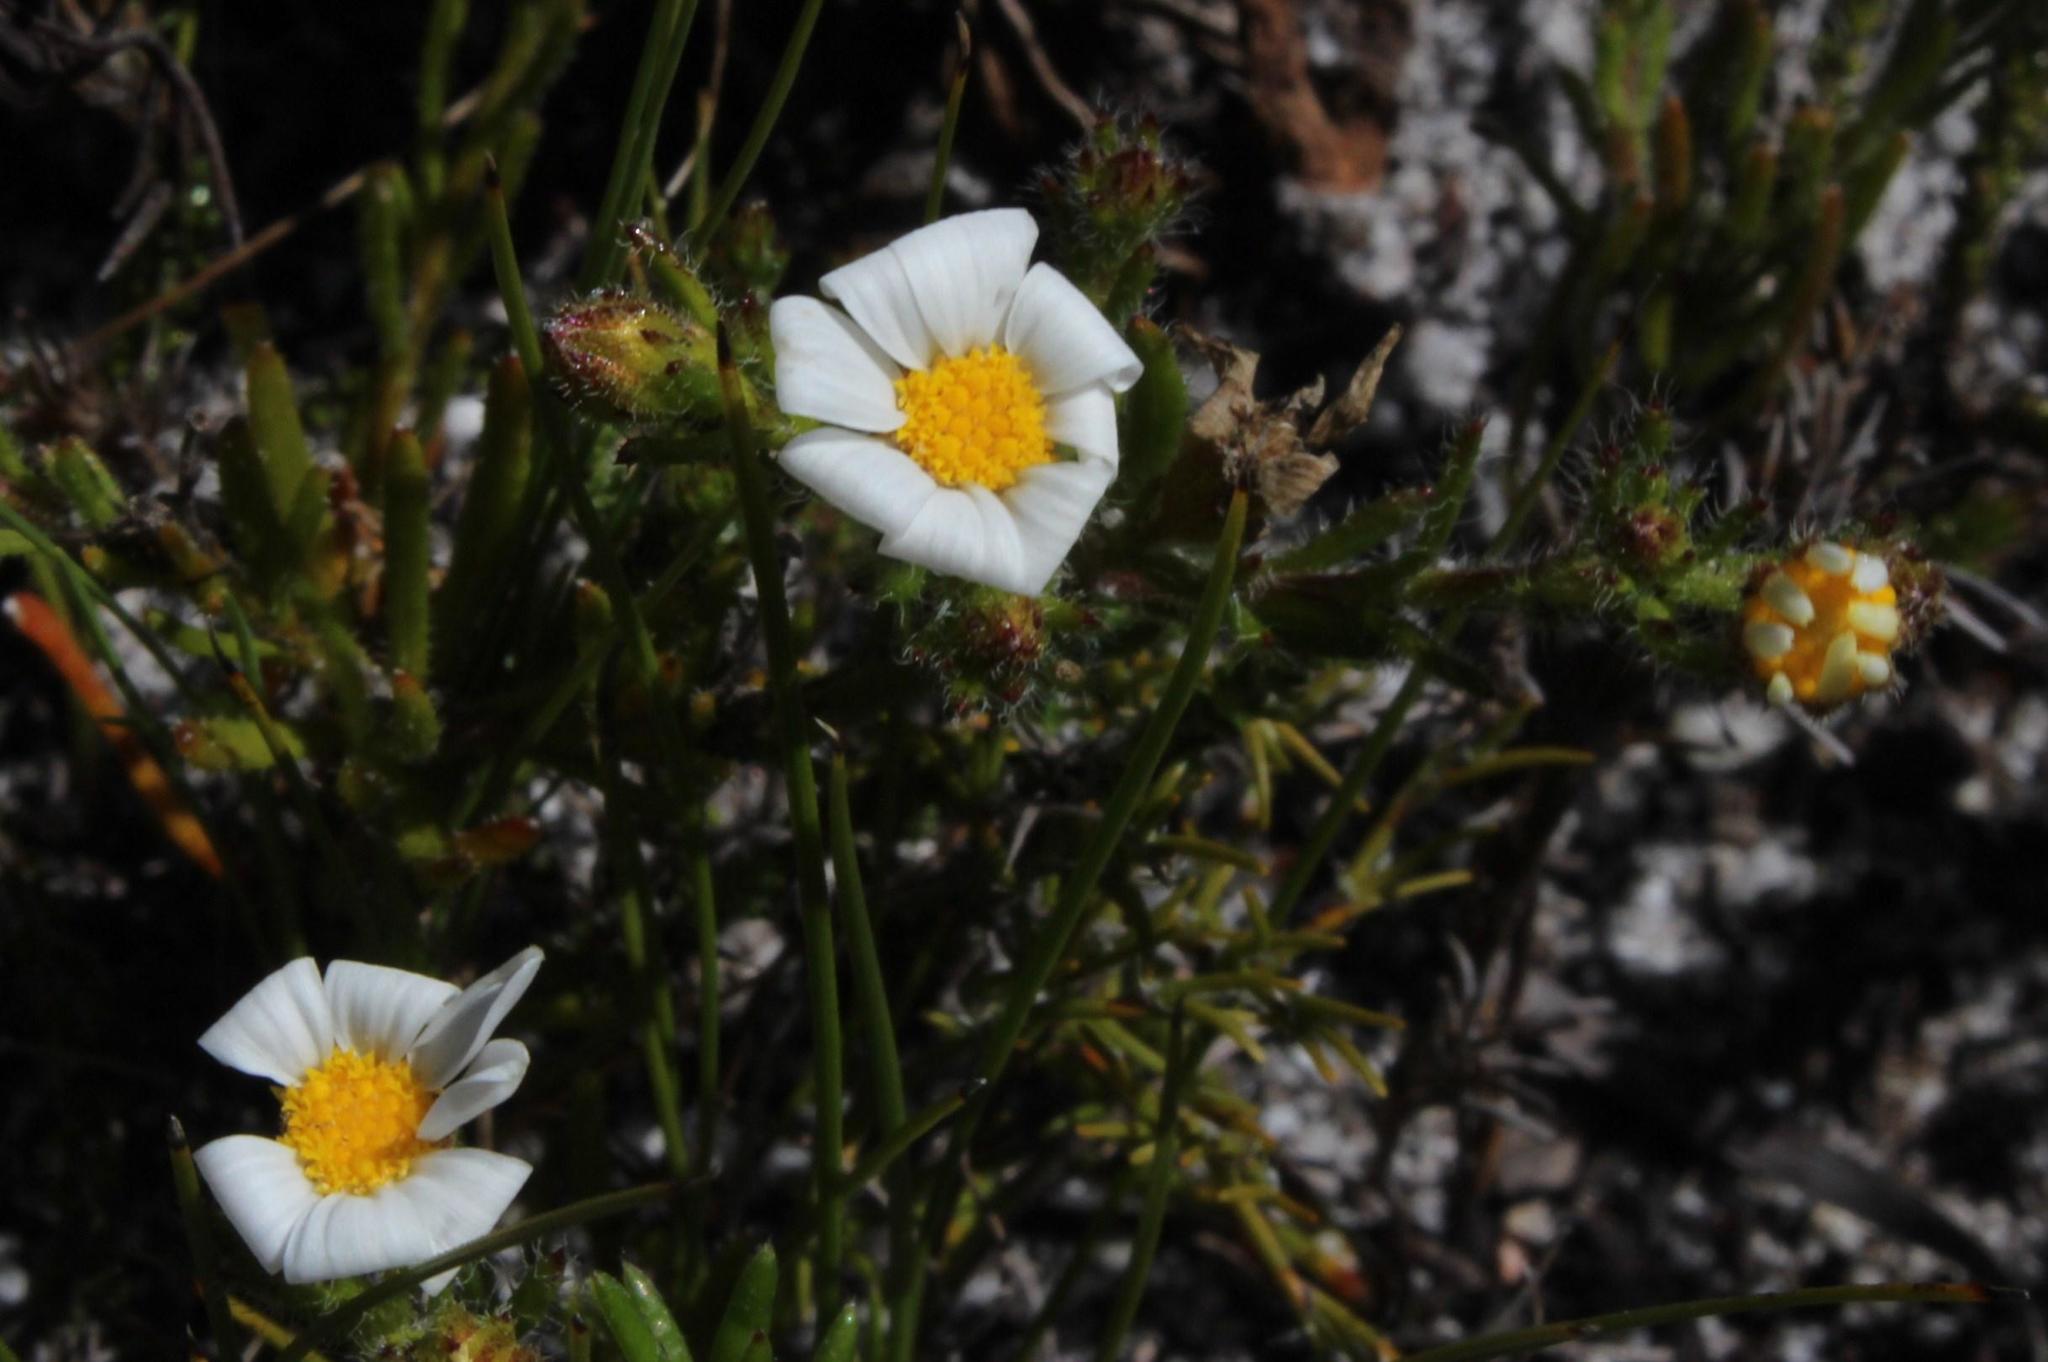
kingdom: Plantae
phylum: Tracheophyta
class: Magnoliopsida
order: Asterales
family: Asteraceae
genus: Zyrphelis
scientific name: Zyrphelis foliosa
